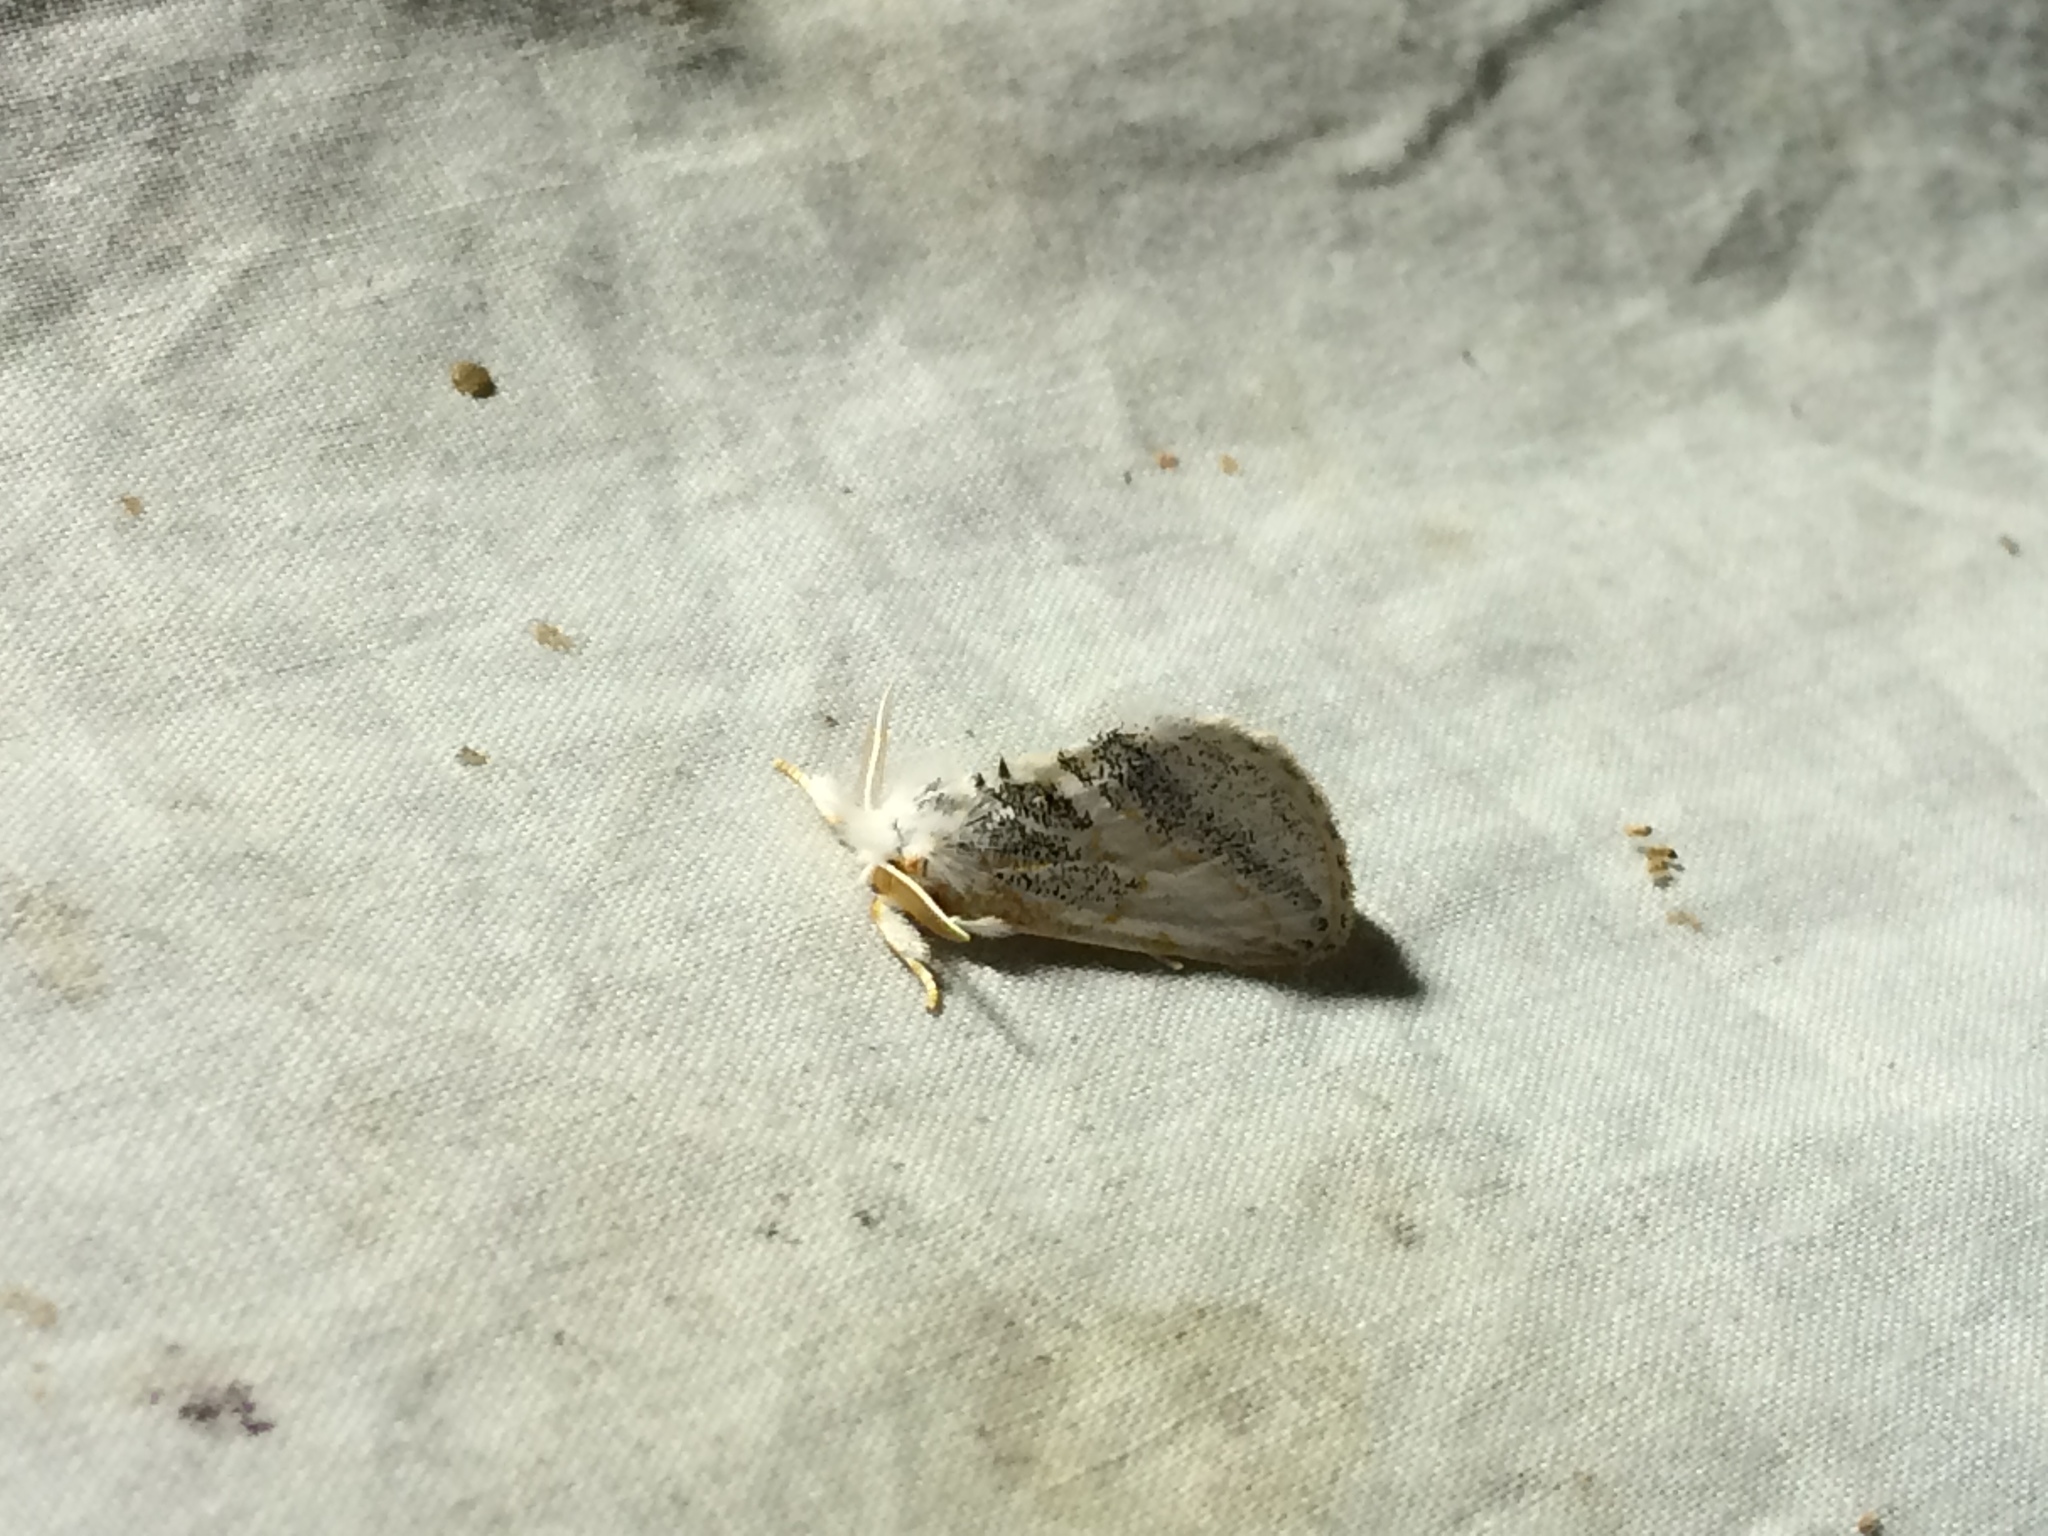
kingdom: Animalia
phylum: Arthropoda
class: Insecta
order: Lepidoptera
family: Erebidae
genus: Daplasa
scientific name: Daplasa irrorata
